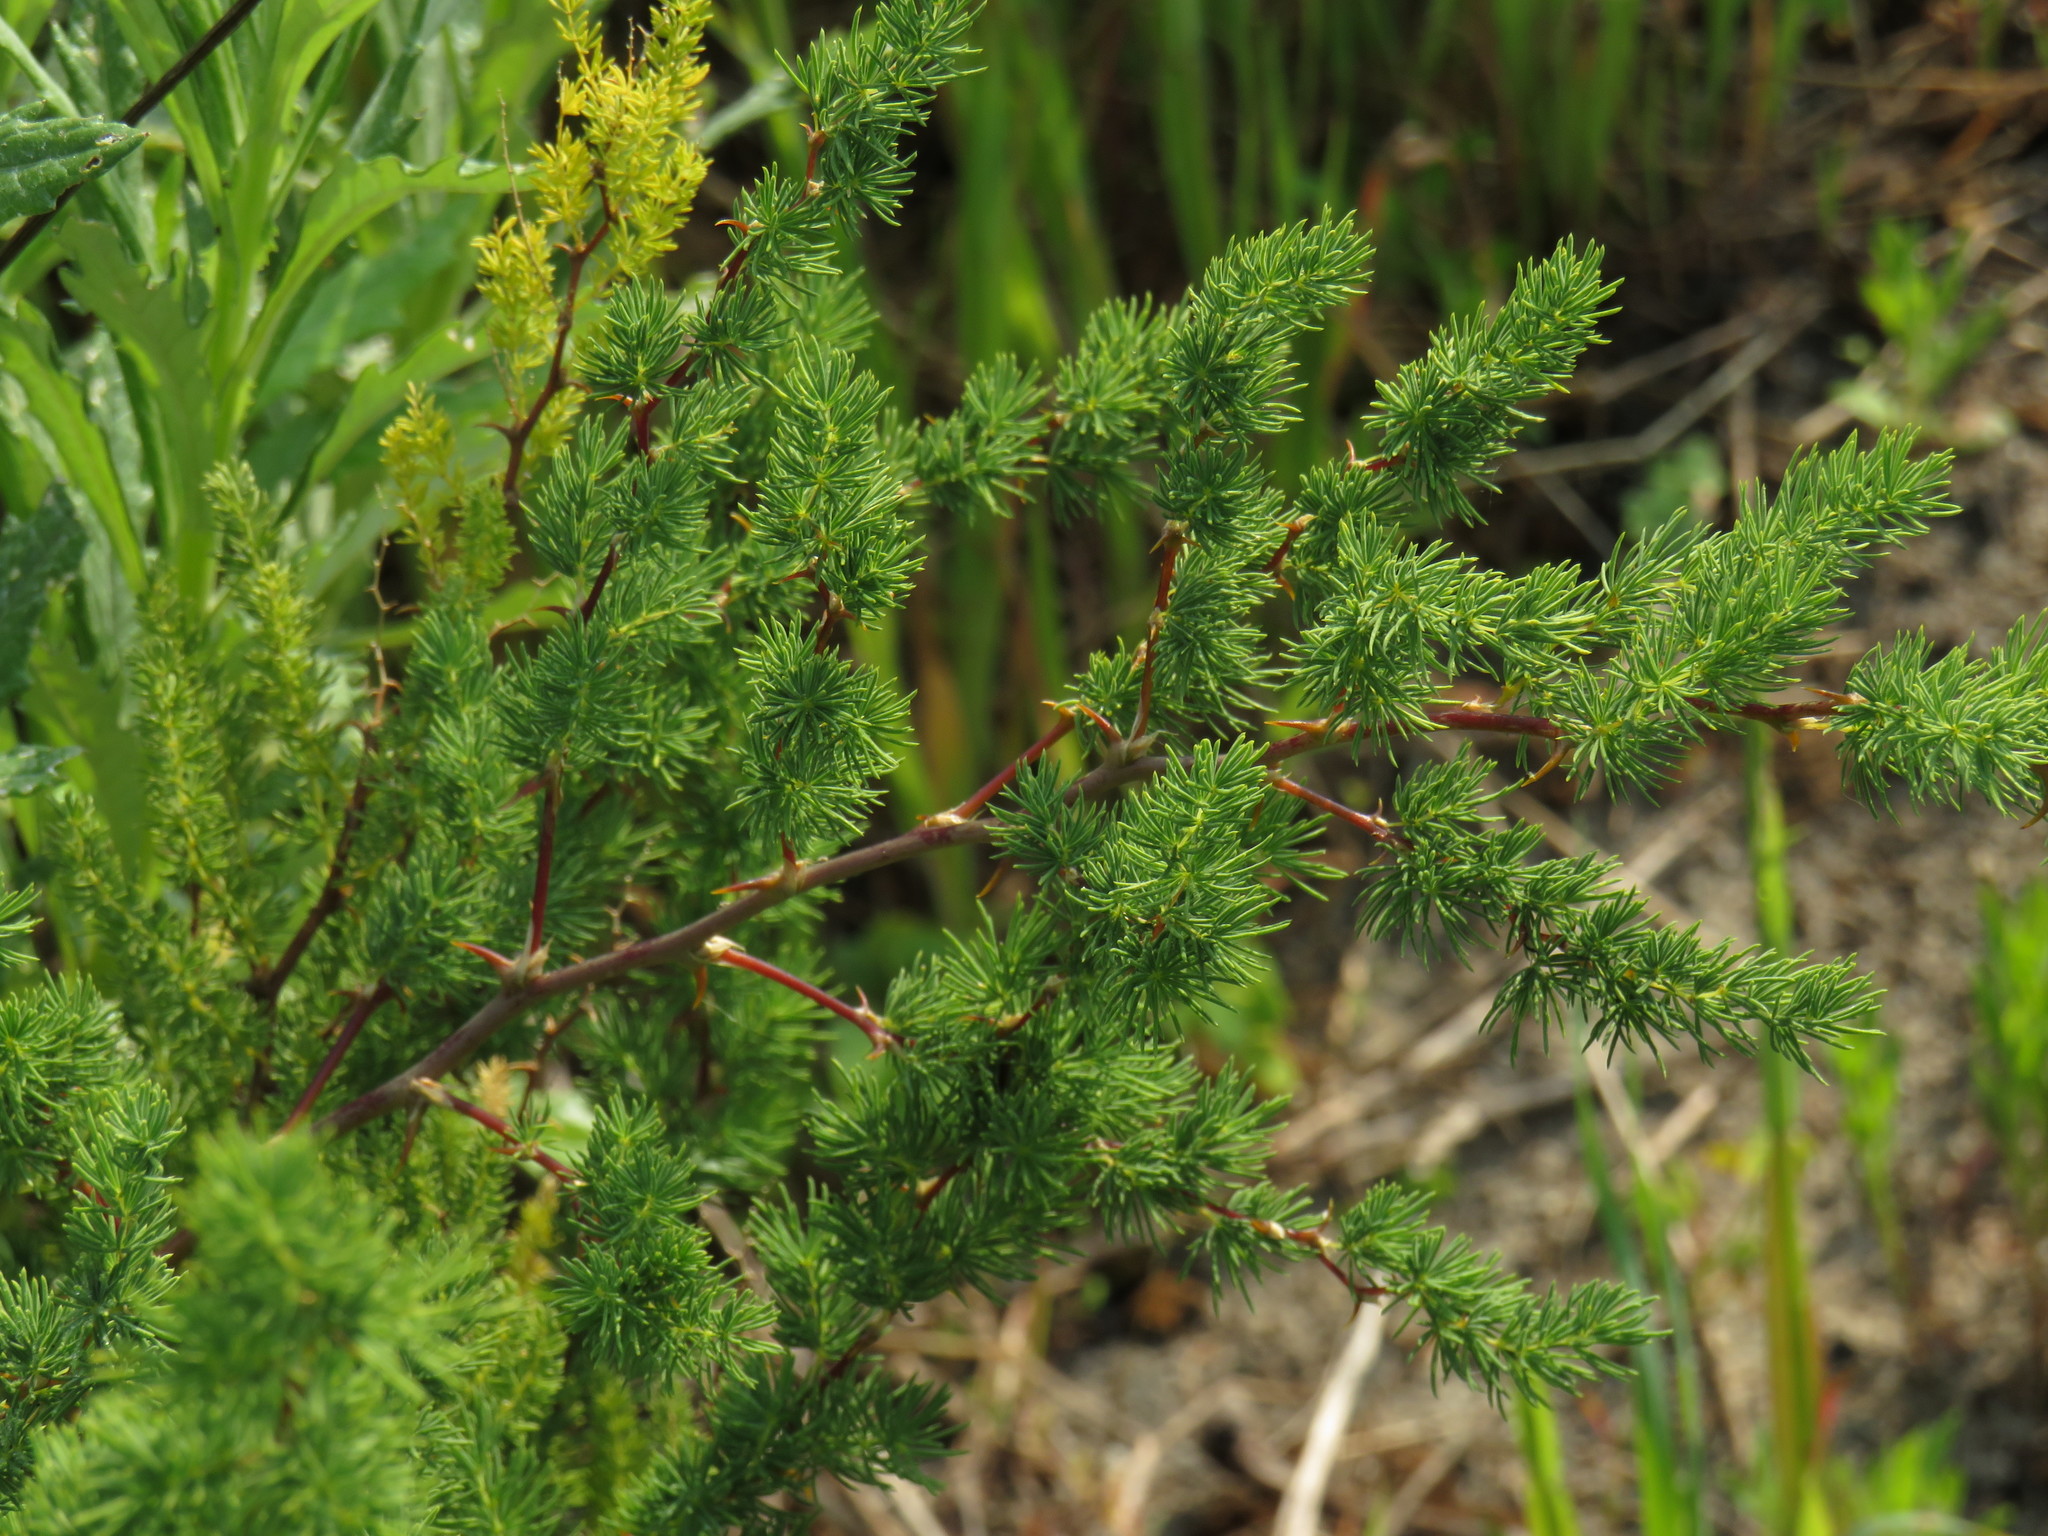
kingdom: Plantae
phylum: Tracheophyta
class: Liliopsida
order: Asparagales
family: Asparagaceae
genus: Asparagus
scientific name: Asparagus rubicundus
